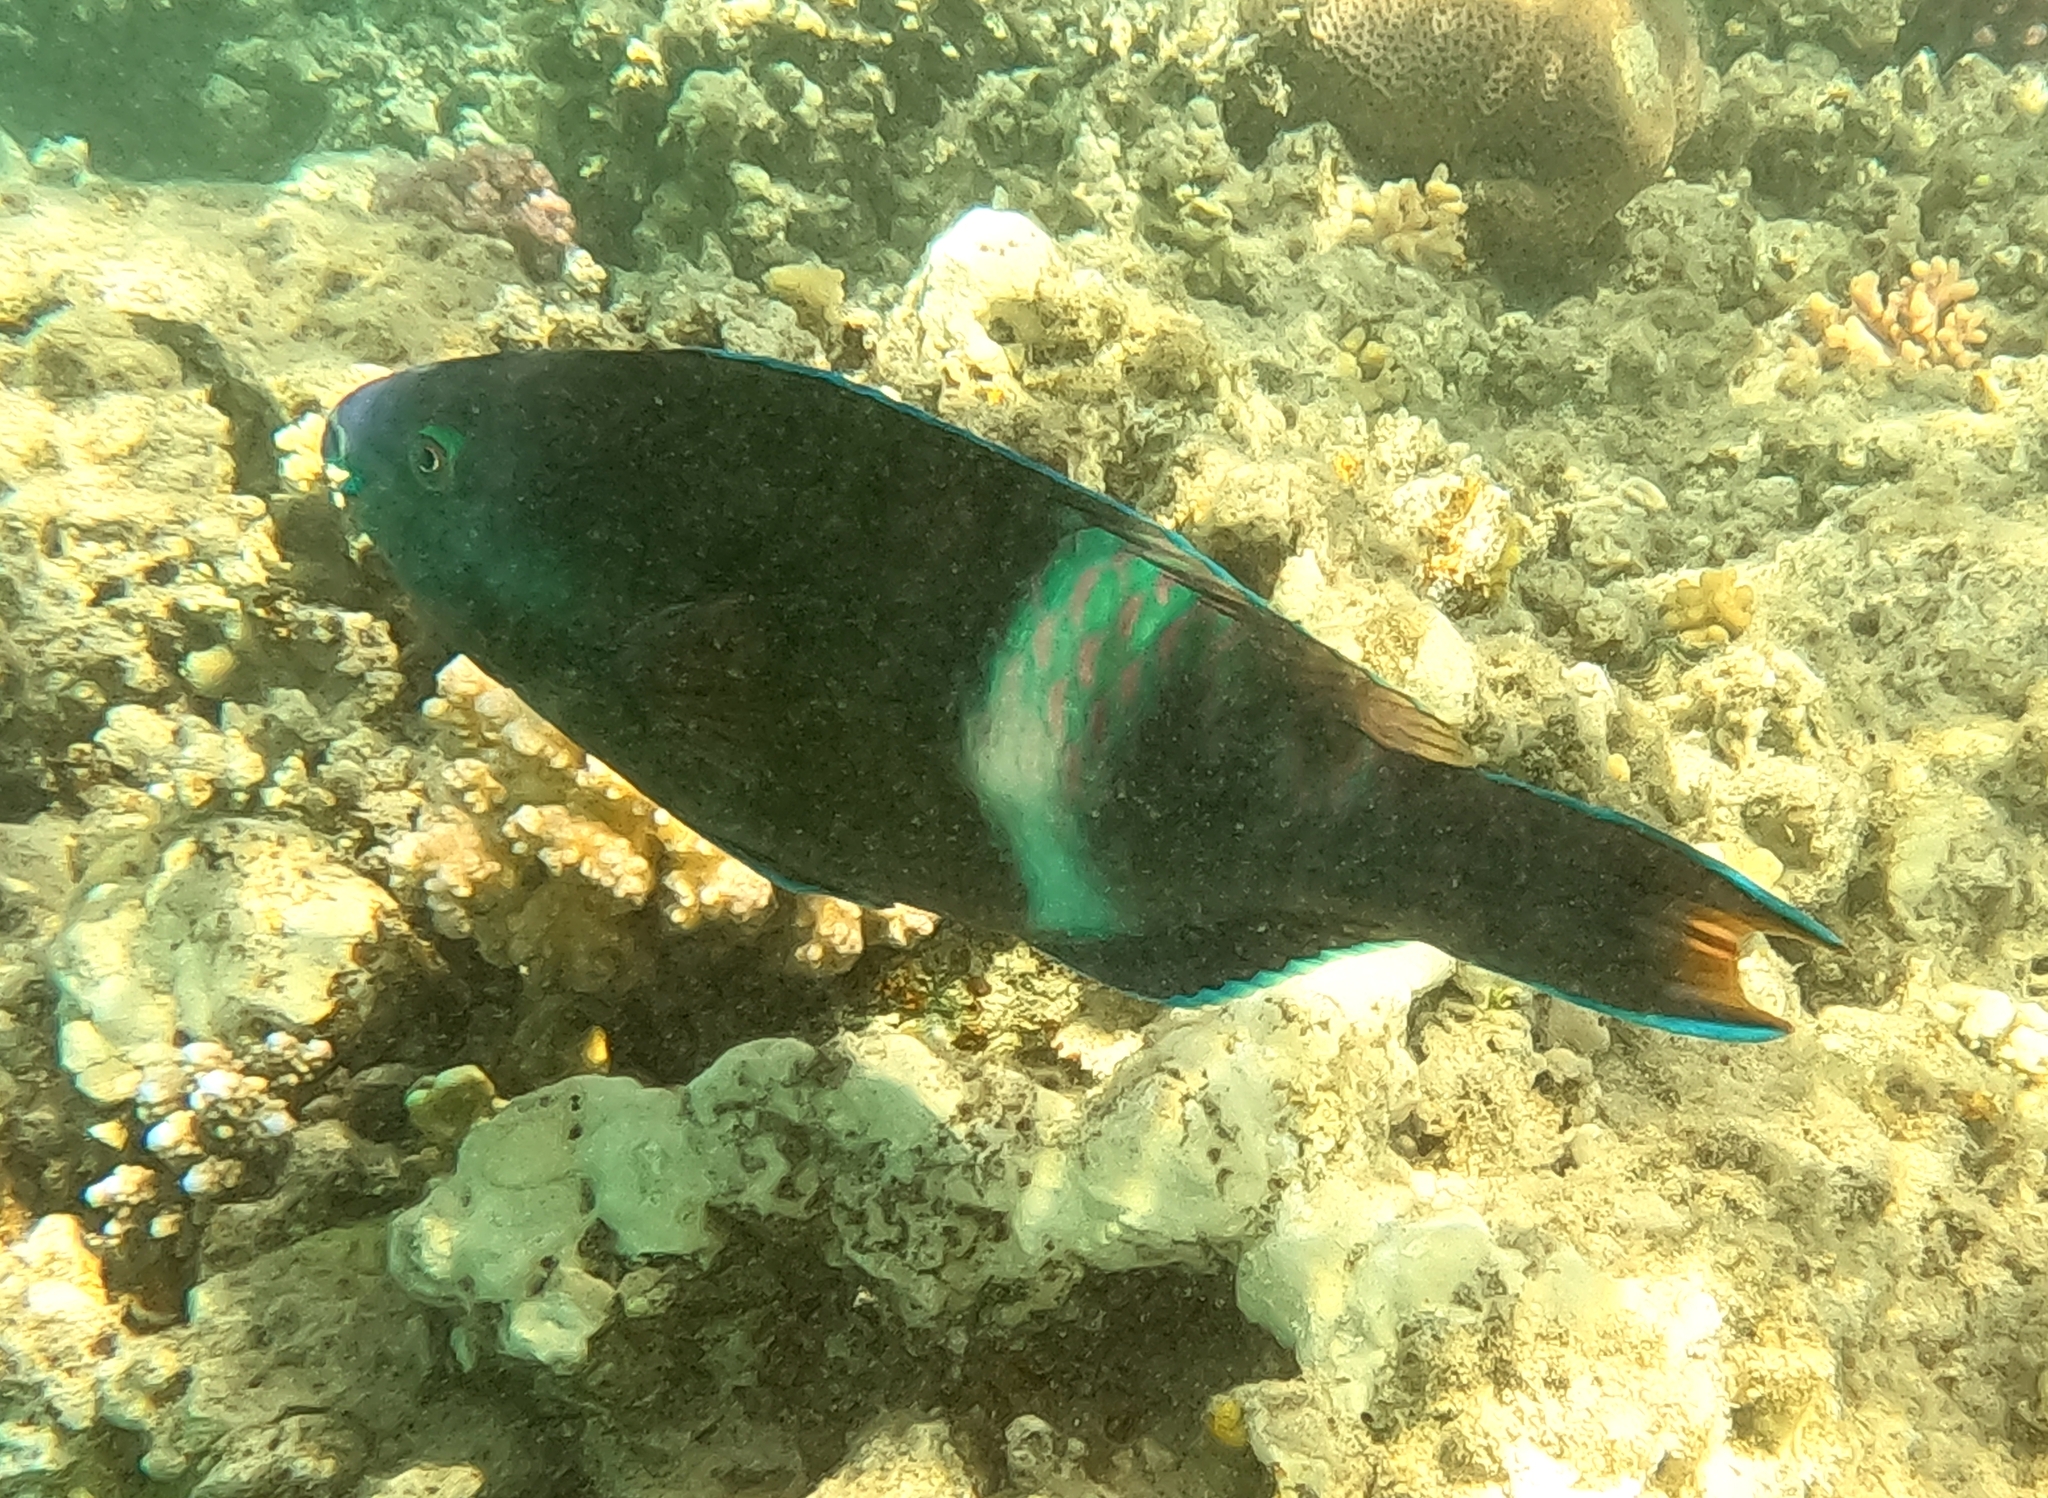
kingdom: Animalia
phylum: Chordata
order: Perciformes
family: Scaridae
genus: Scarus
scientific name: Scarus fuscopurpureus
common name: Purple-brown parrotfish
